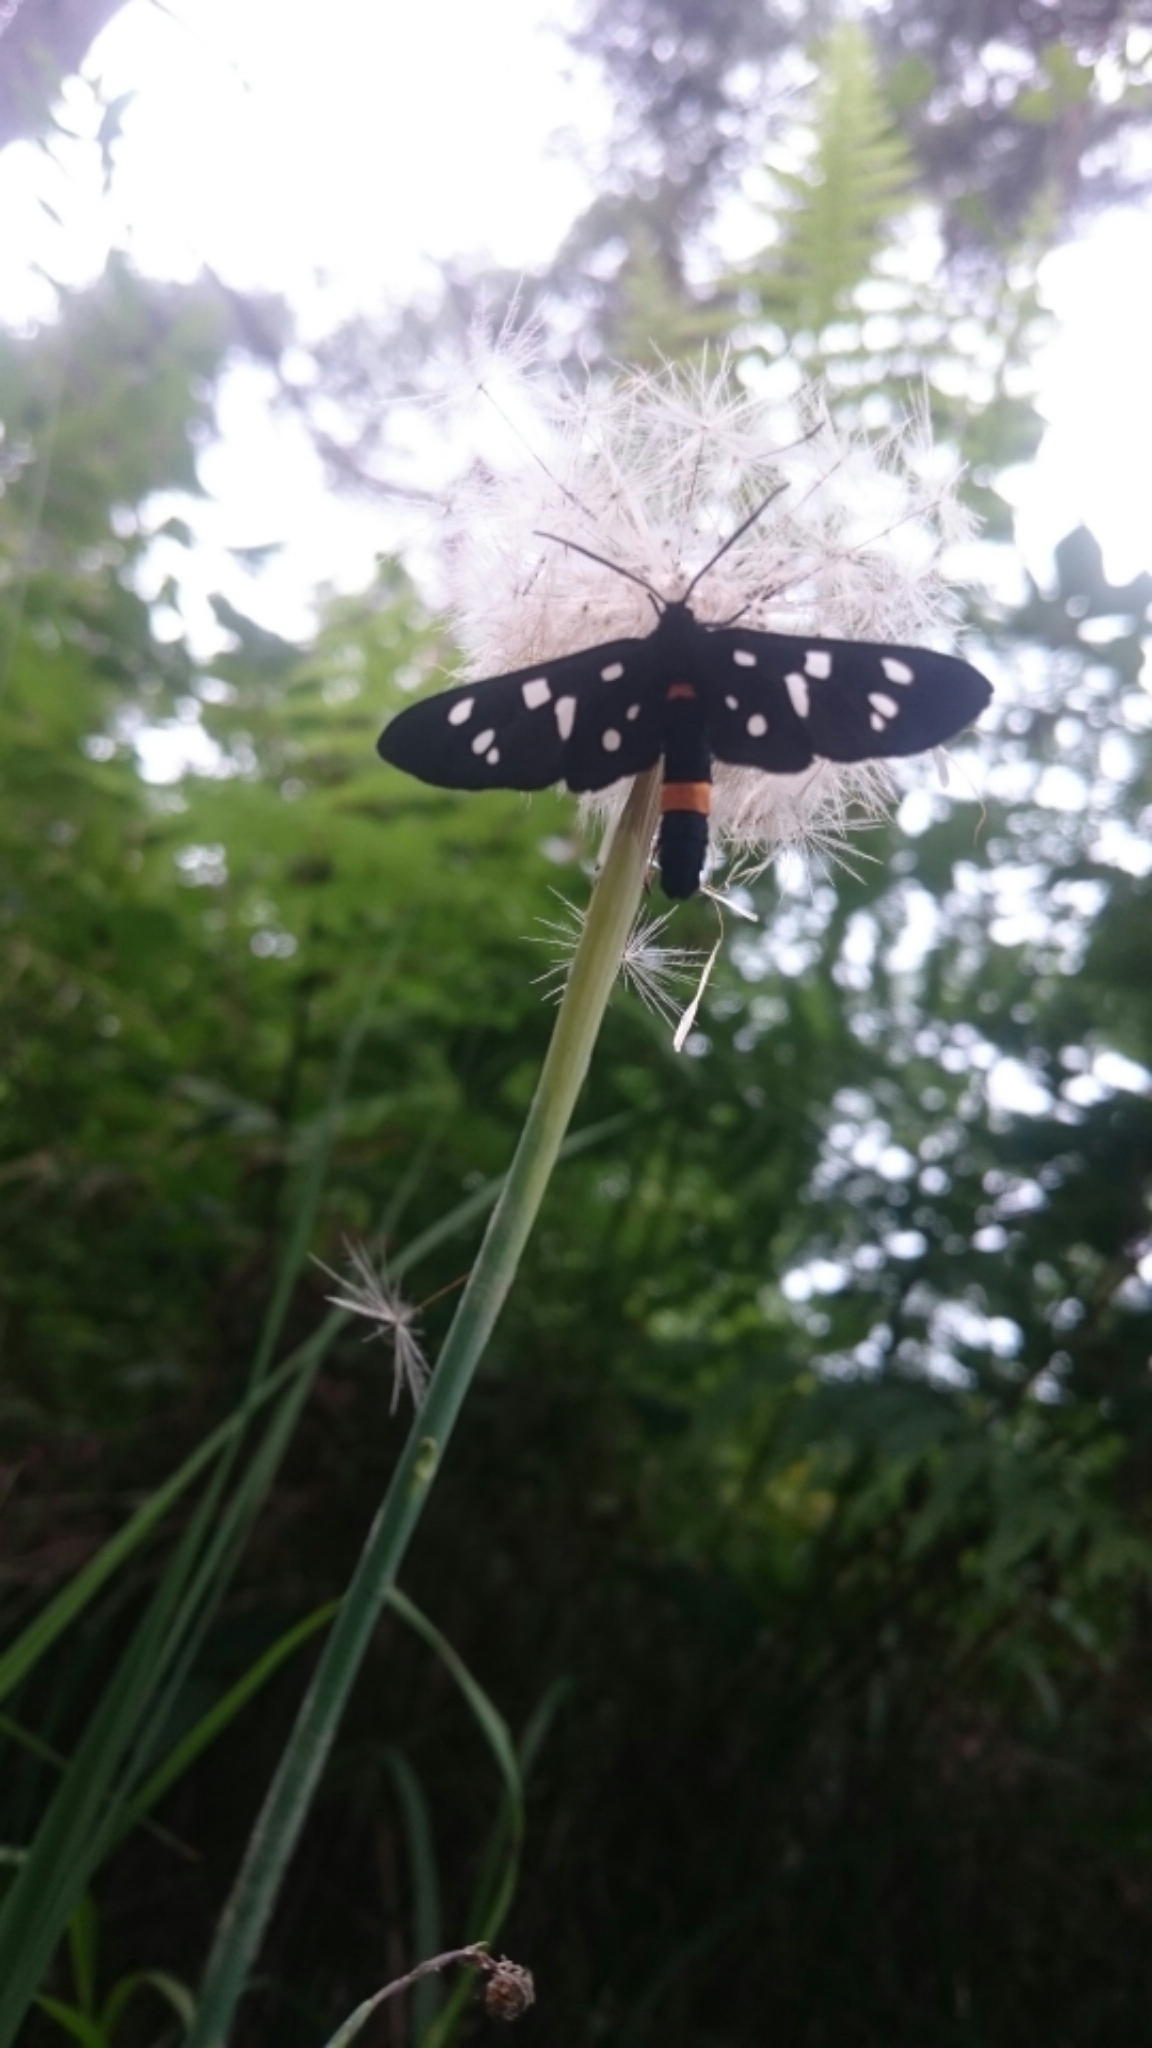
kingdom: Animalia
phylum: Arthropoda
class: Insecta
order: Lepidoptera
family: Erebidae
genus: Amata
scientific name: Amata phegea
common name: Nine-spotted
